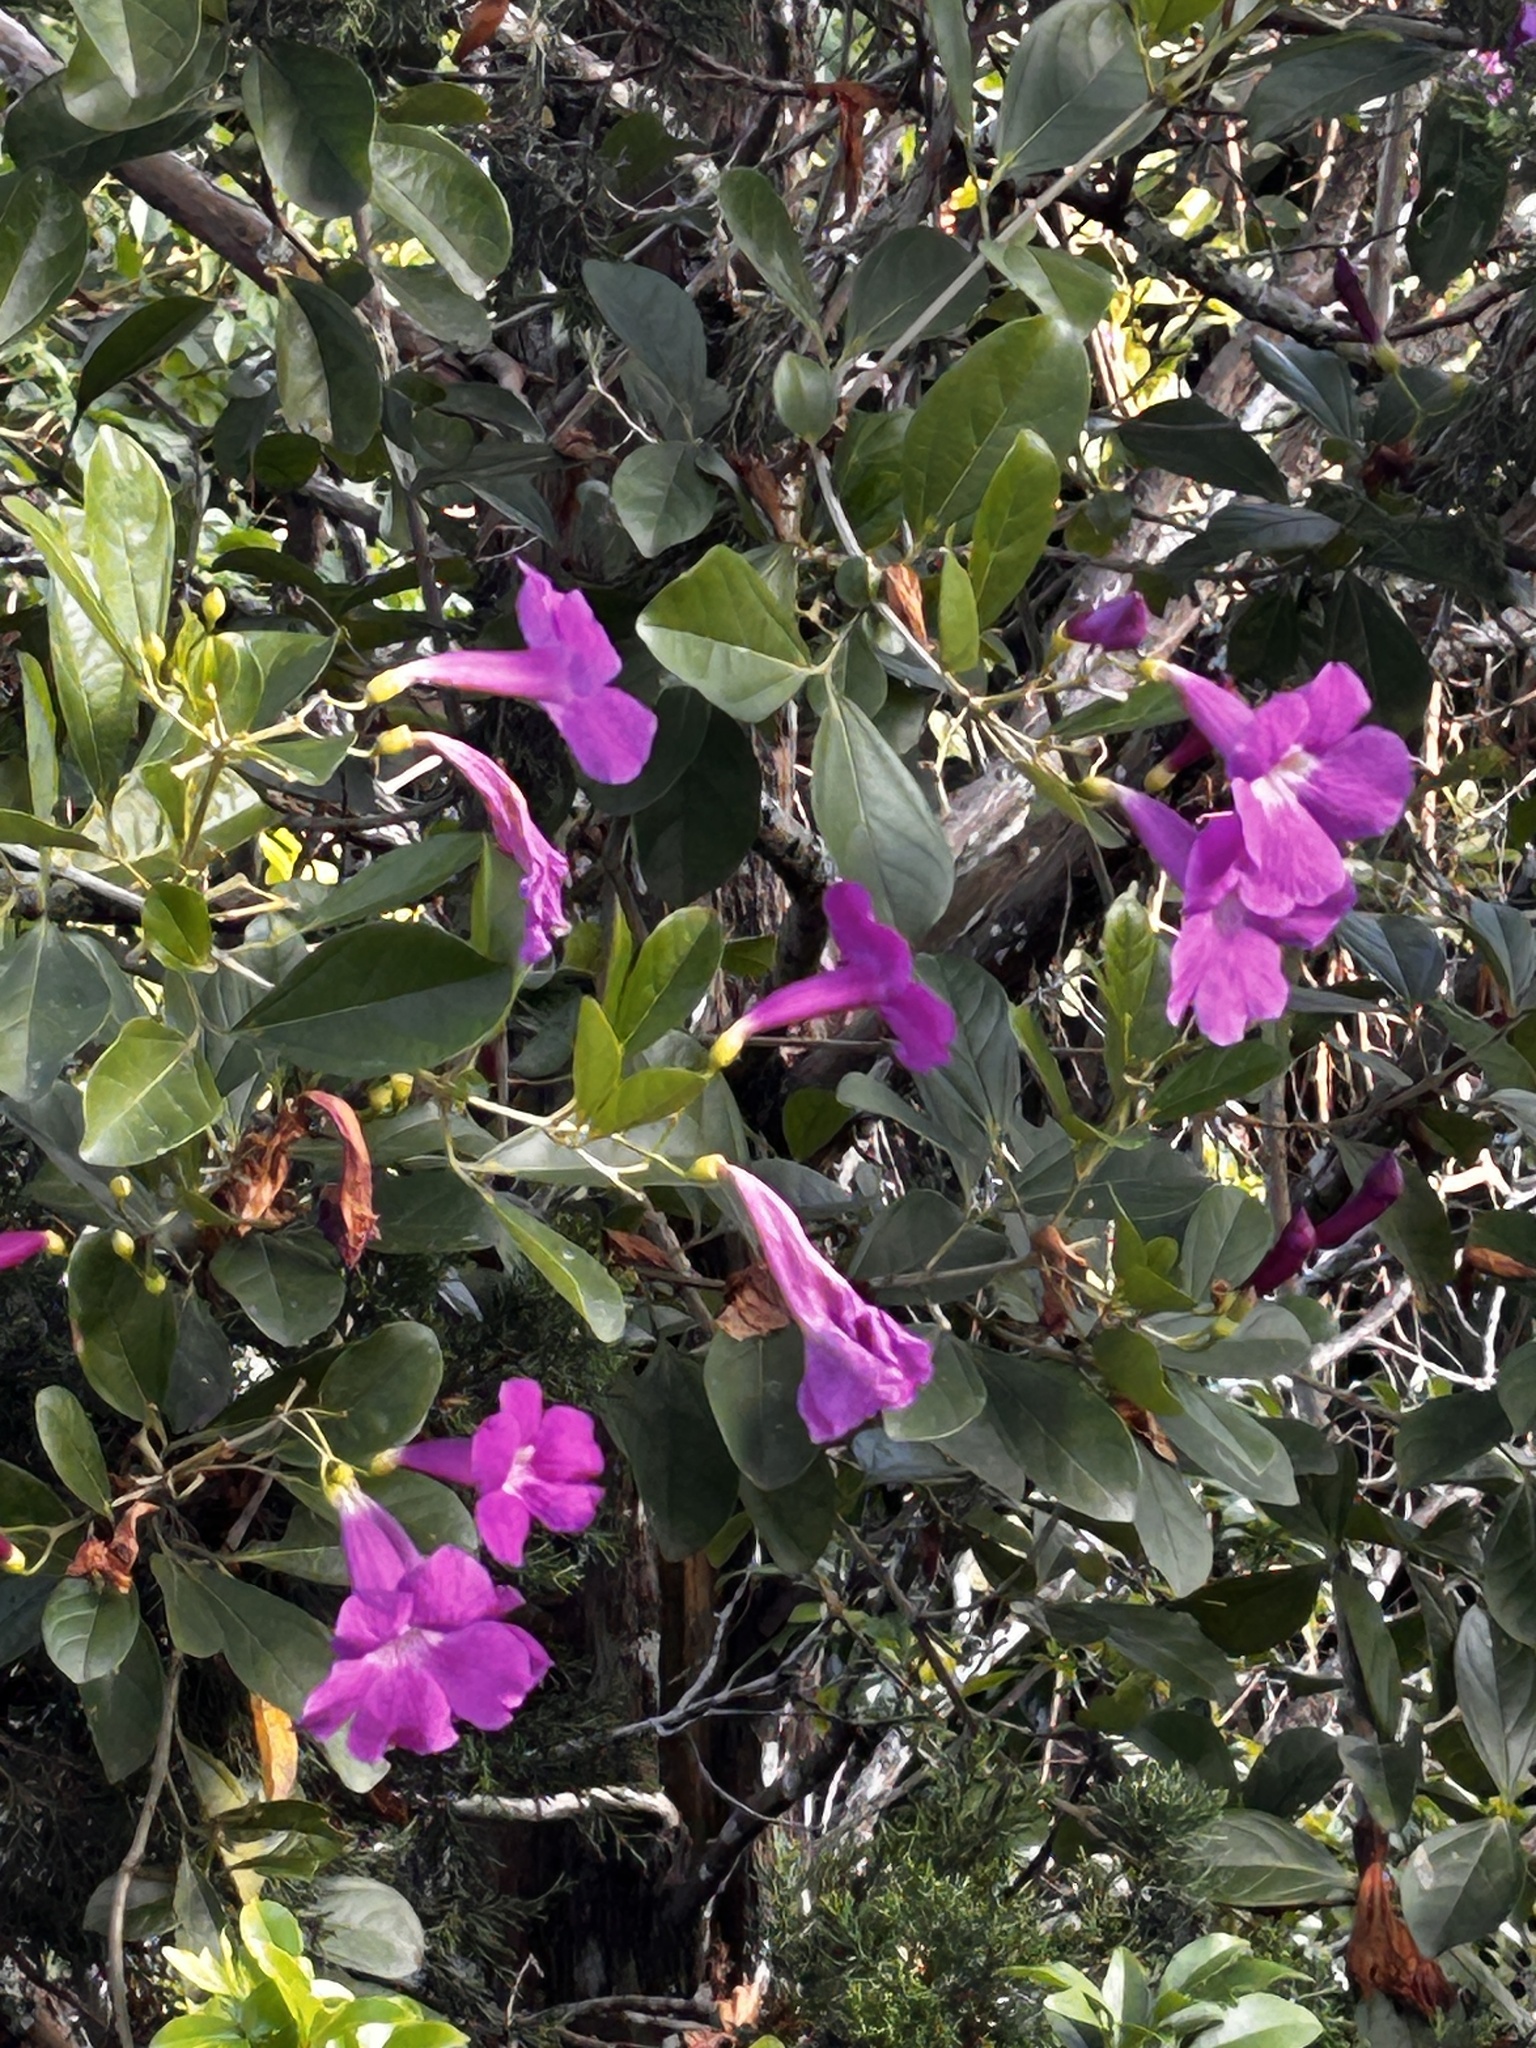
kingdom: Plantae
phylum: Tracheophyta
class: Magnoliopsida
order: Lamiales
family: Bignoniaceae
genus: Bignonia
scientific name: Bignonia magnifica
